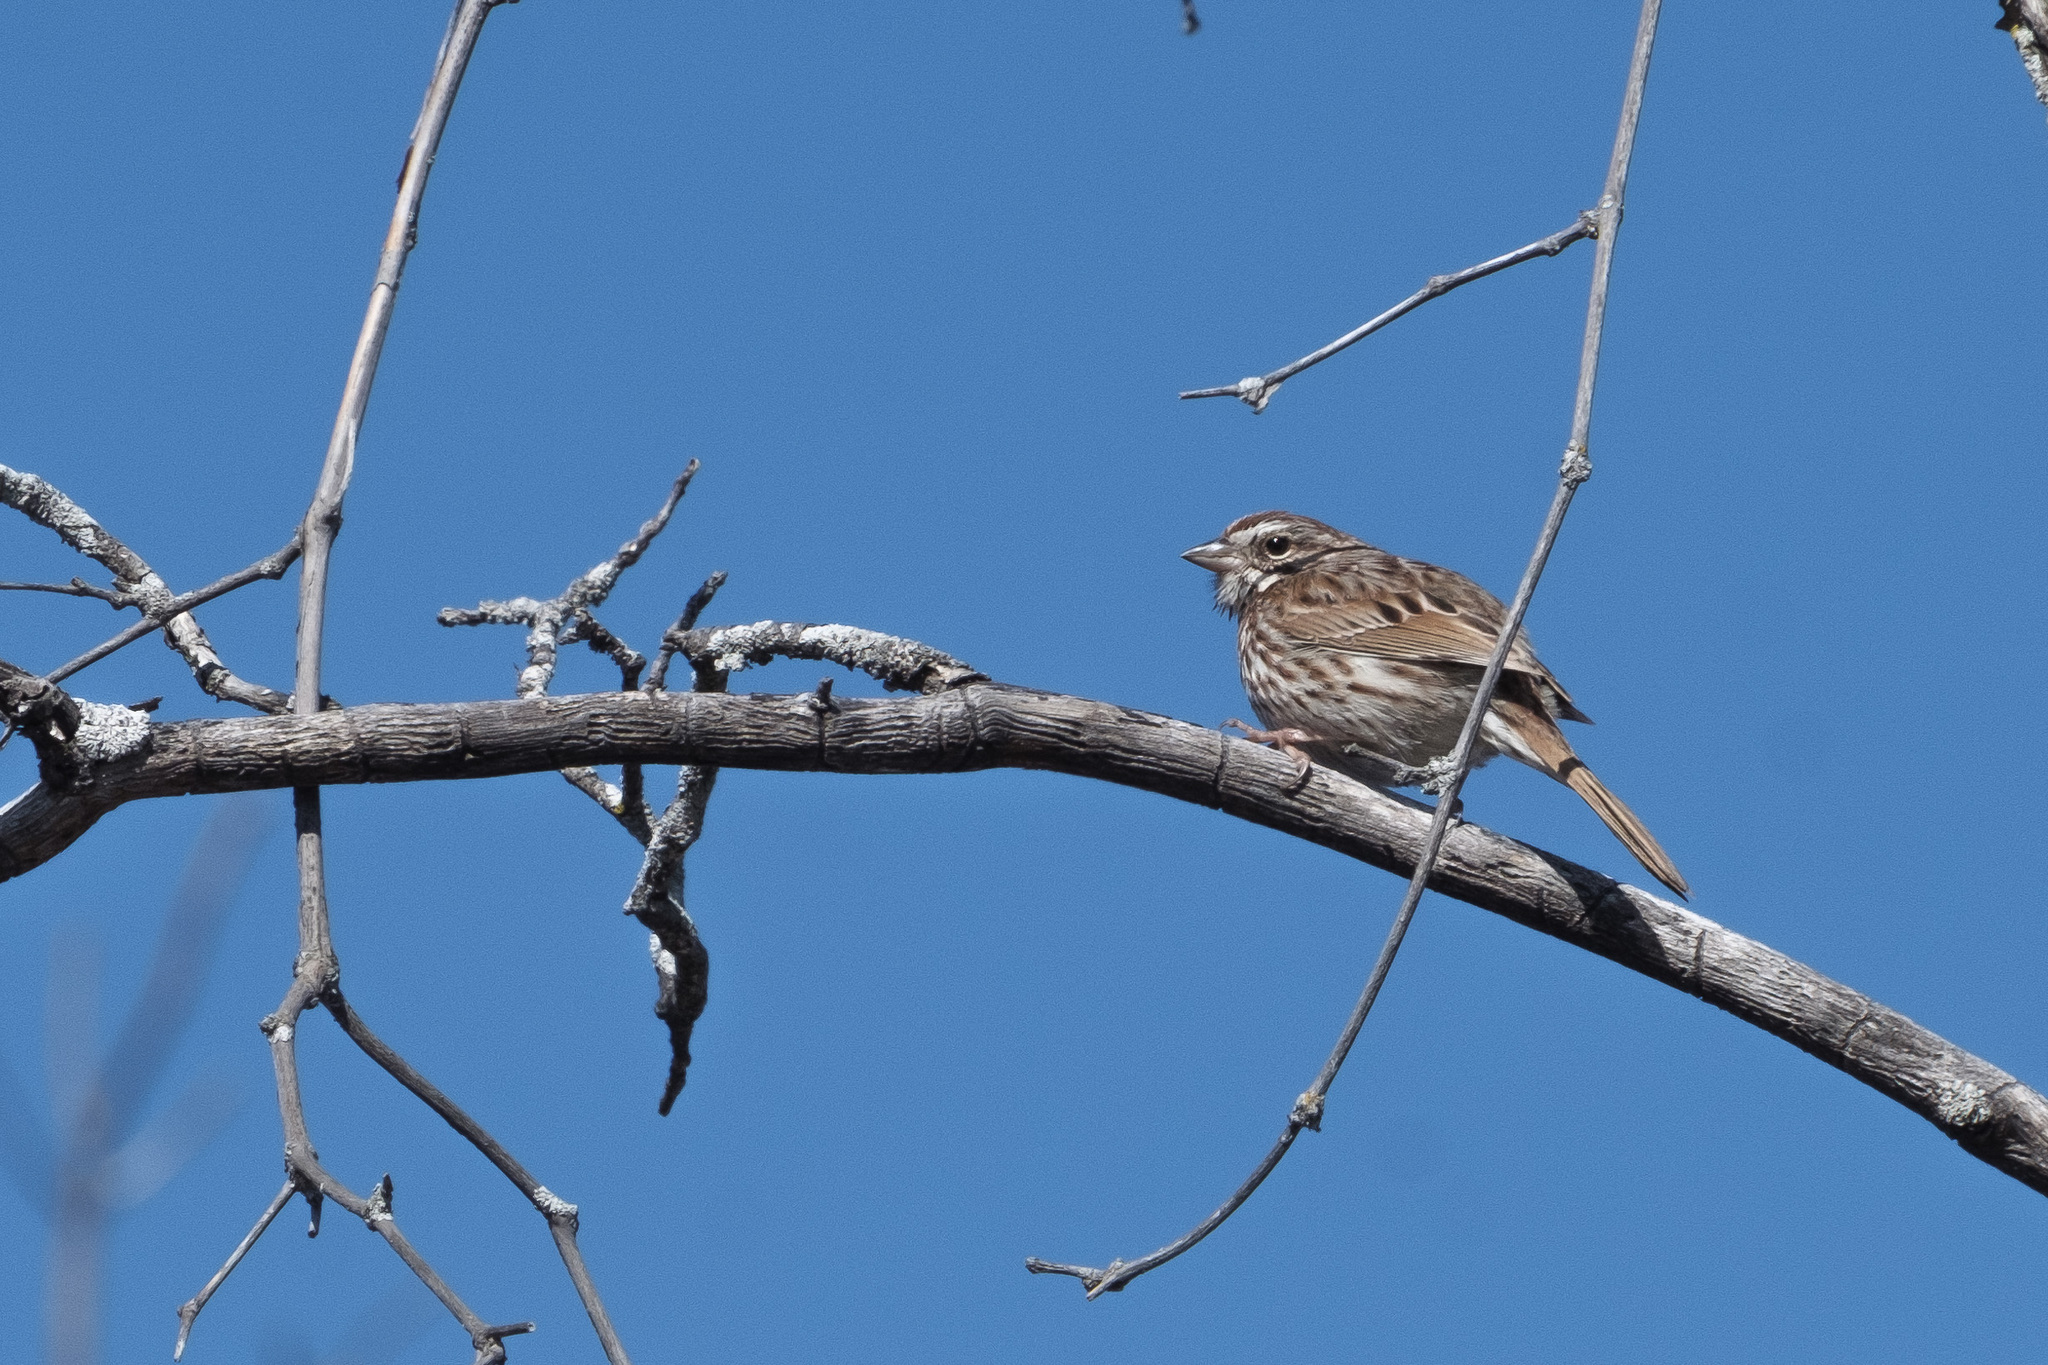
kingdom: Animalia
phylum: Chordata
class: Aves
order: Passeriformes
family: Passerellidae
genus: Melospiza
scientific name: Melospiza melodia
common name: Song sparrow
